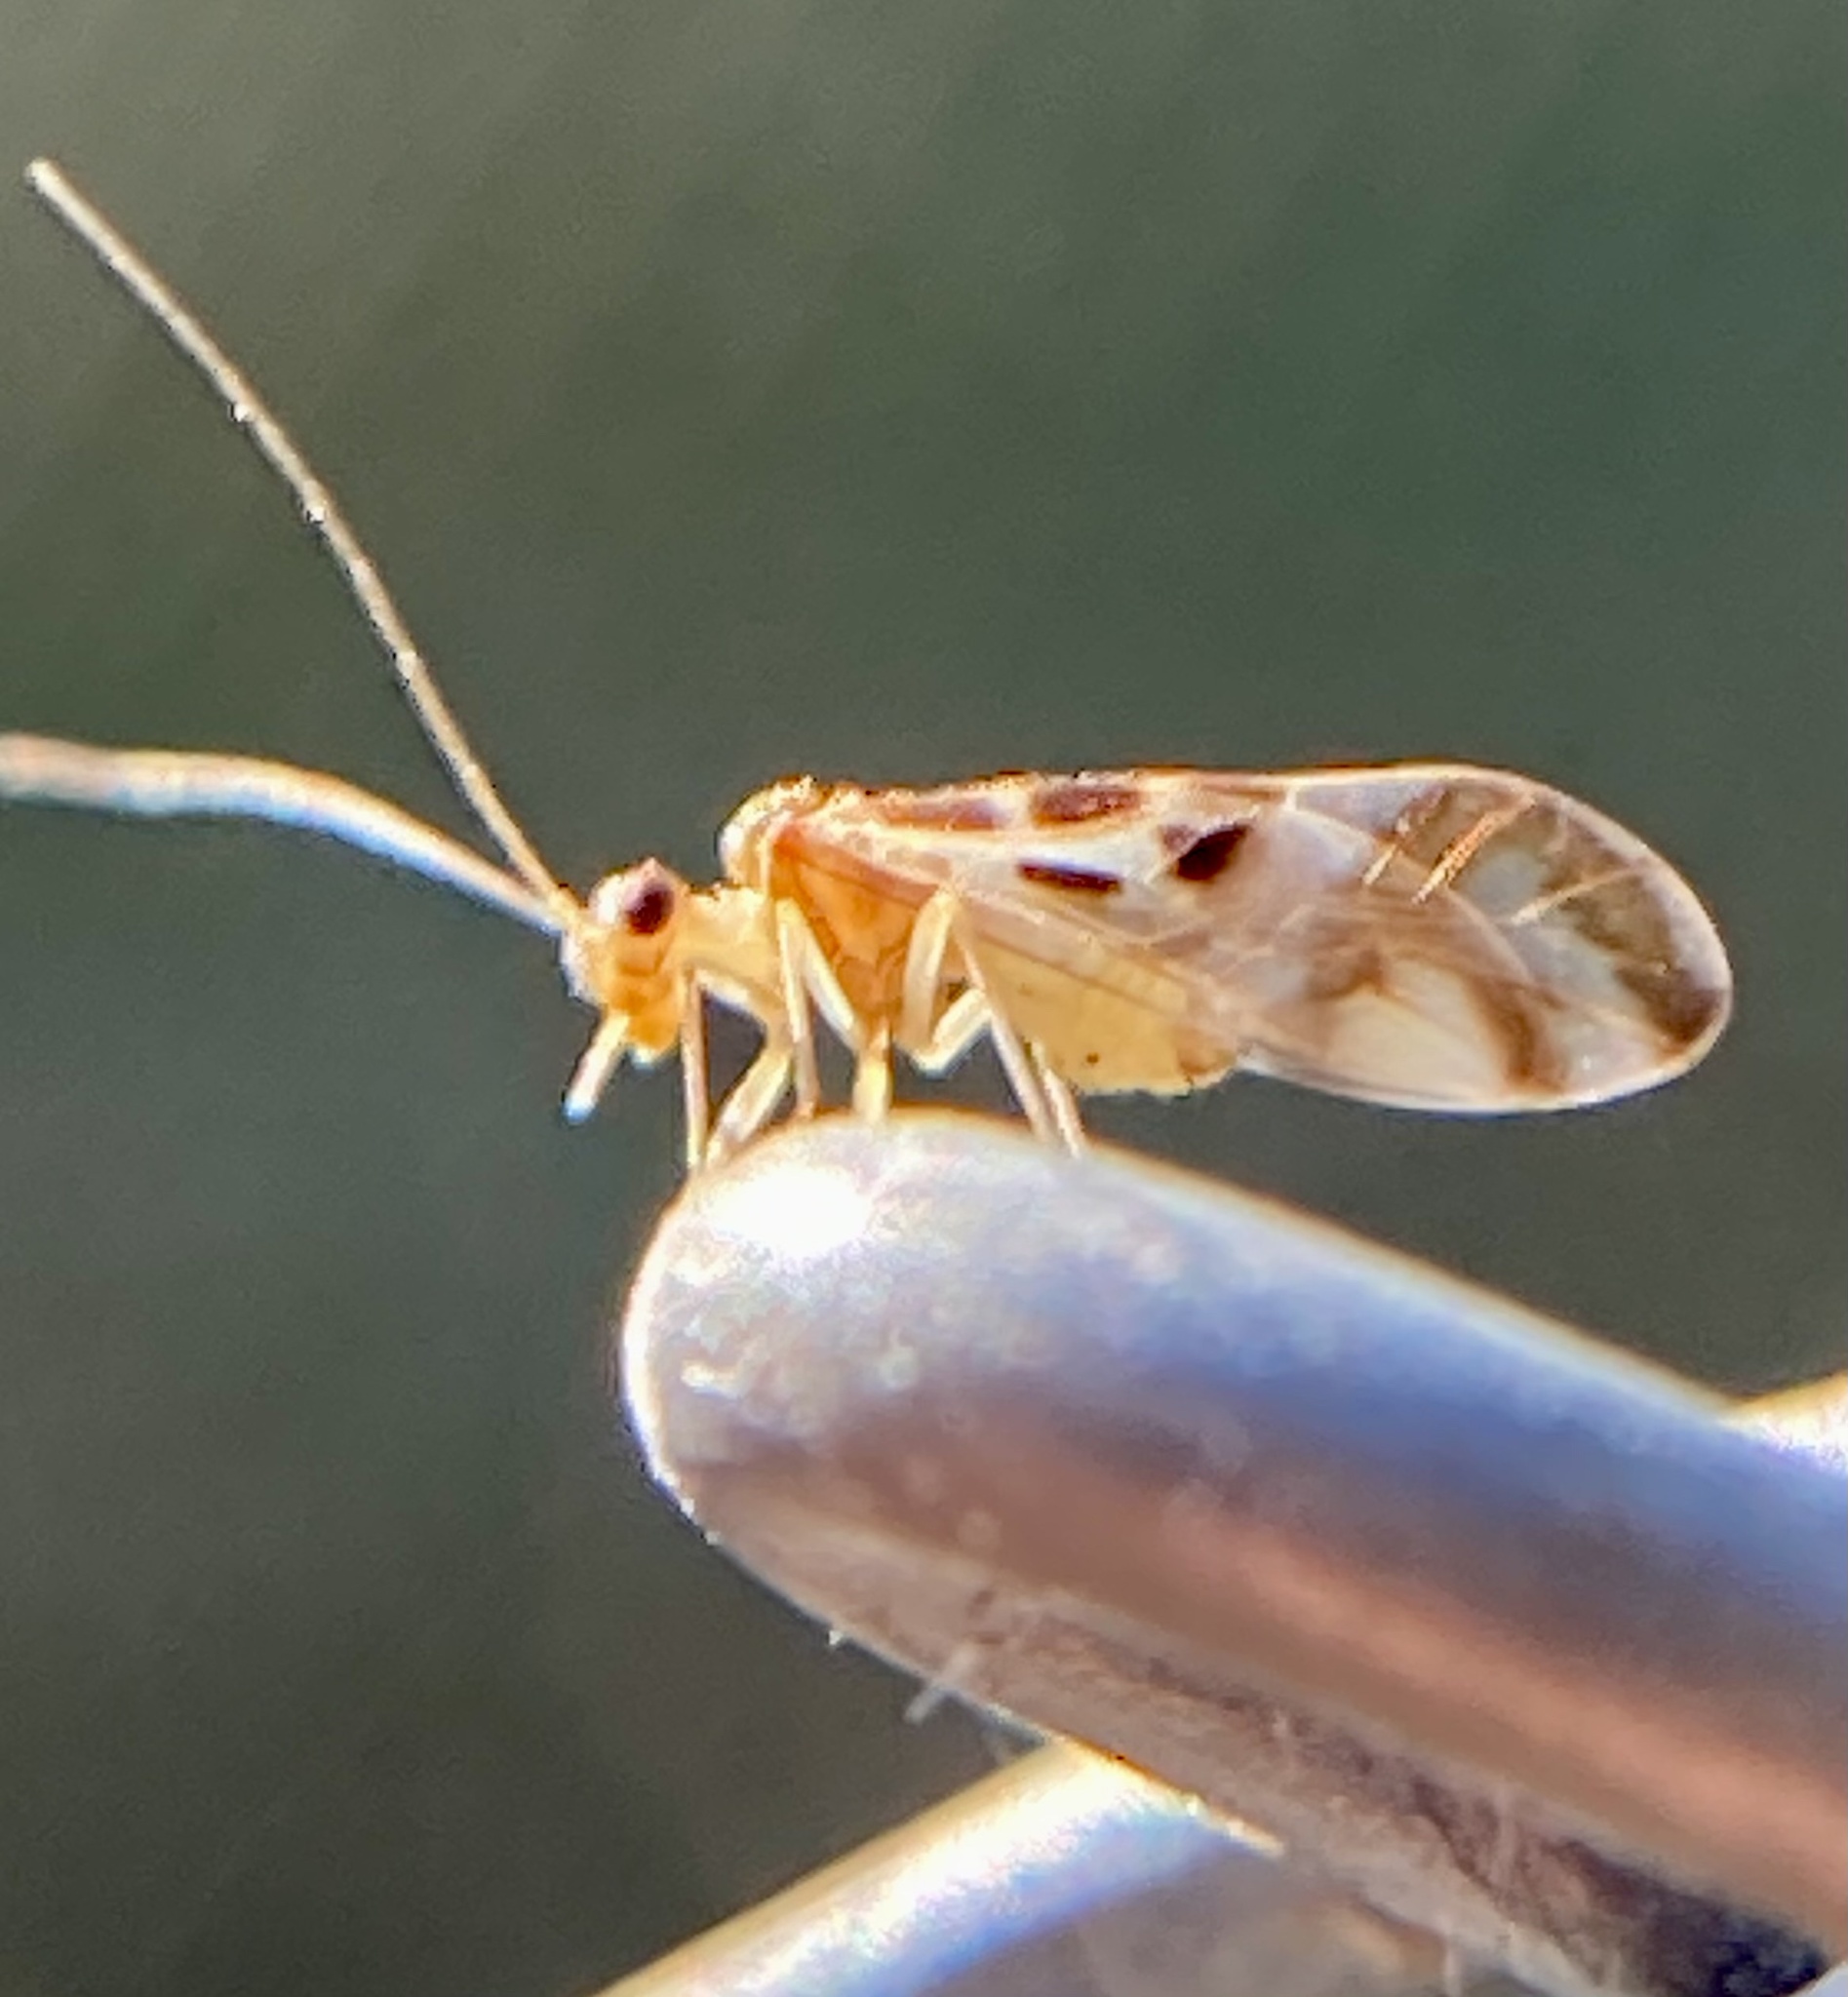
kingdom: Animalia
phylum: Arthropoda
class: Insecta
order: Psocodea
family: Stenopsocidae
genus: Graphopsocus
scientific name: Graphopsocus cruciatus
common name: Lizard bark louse
